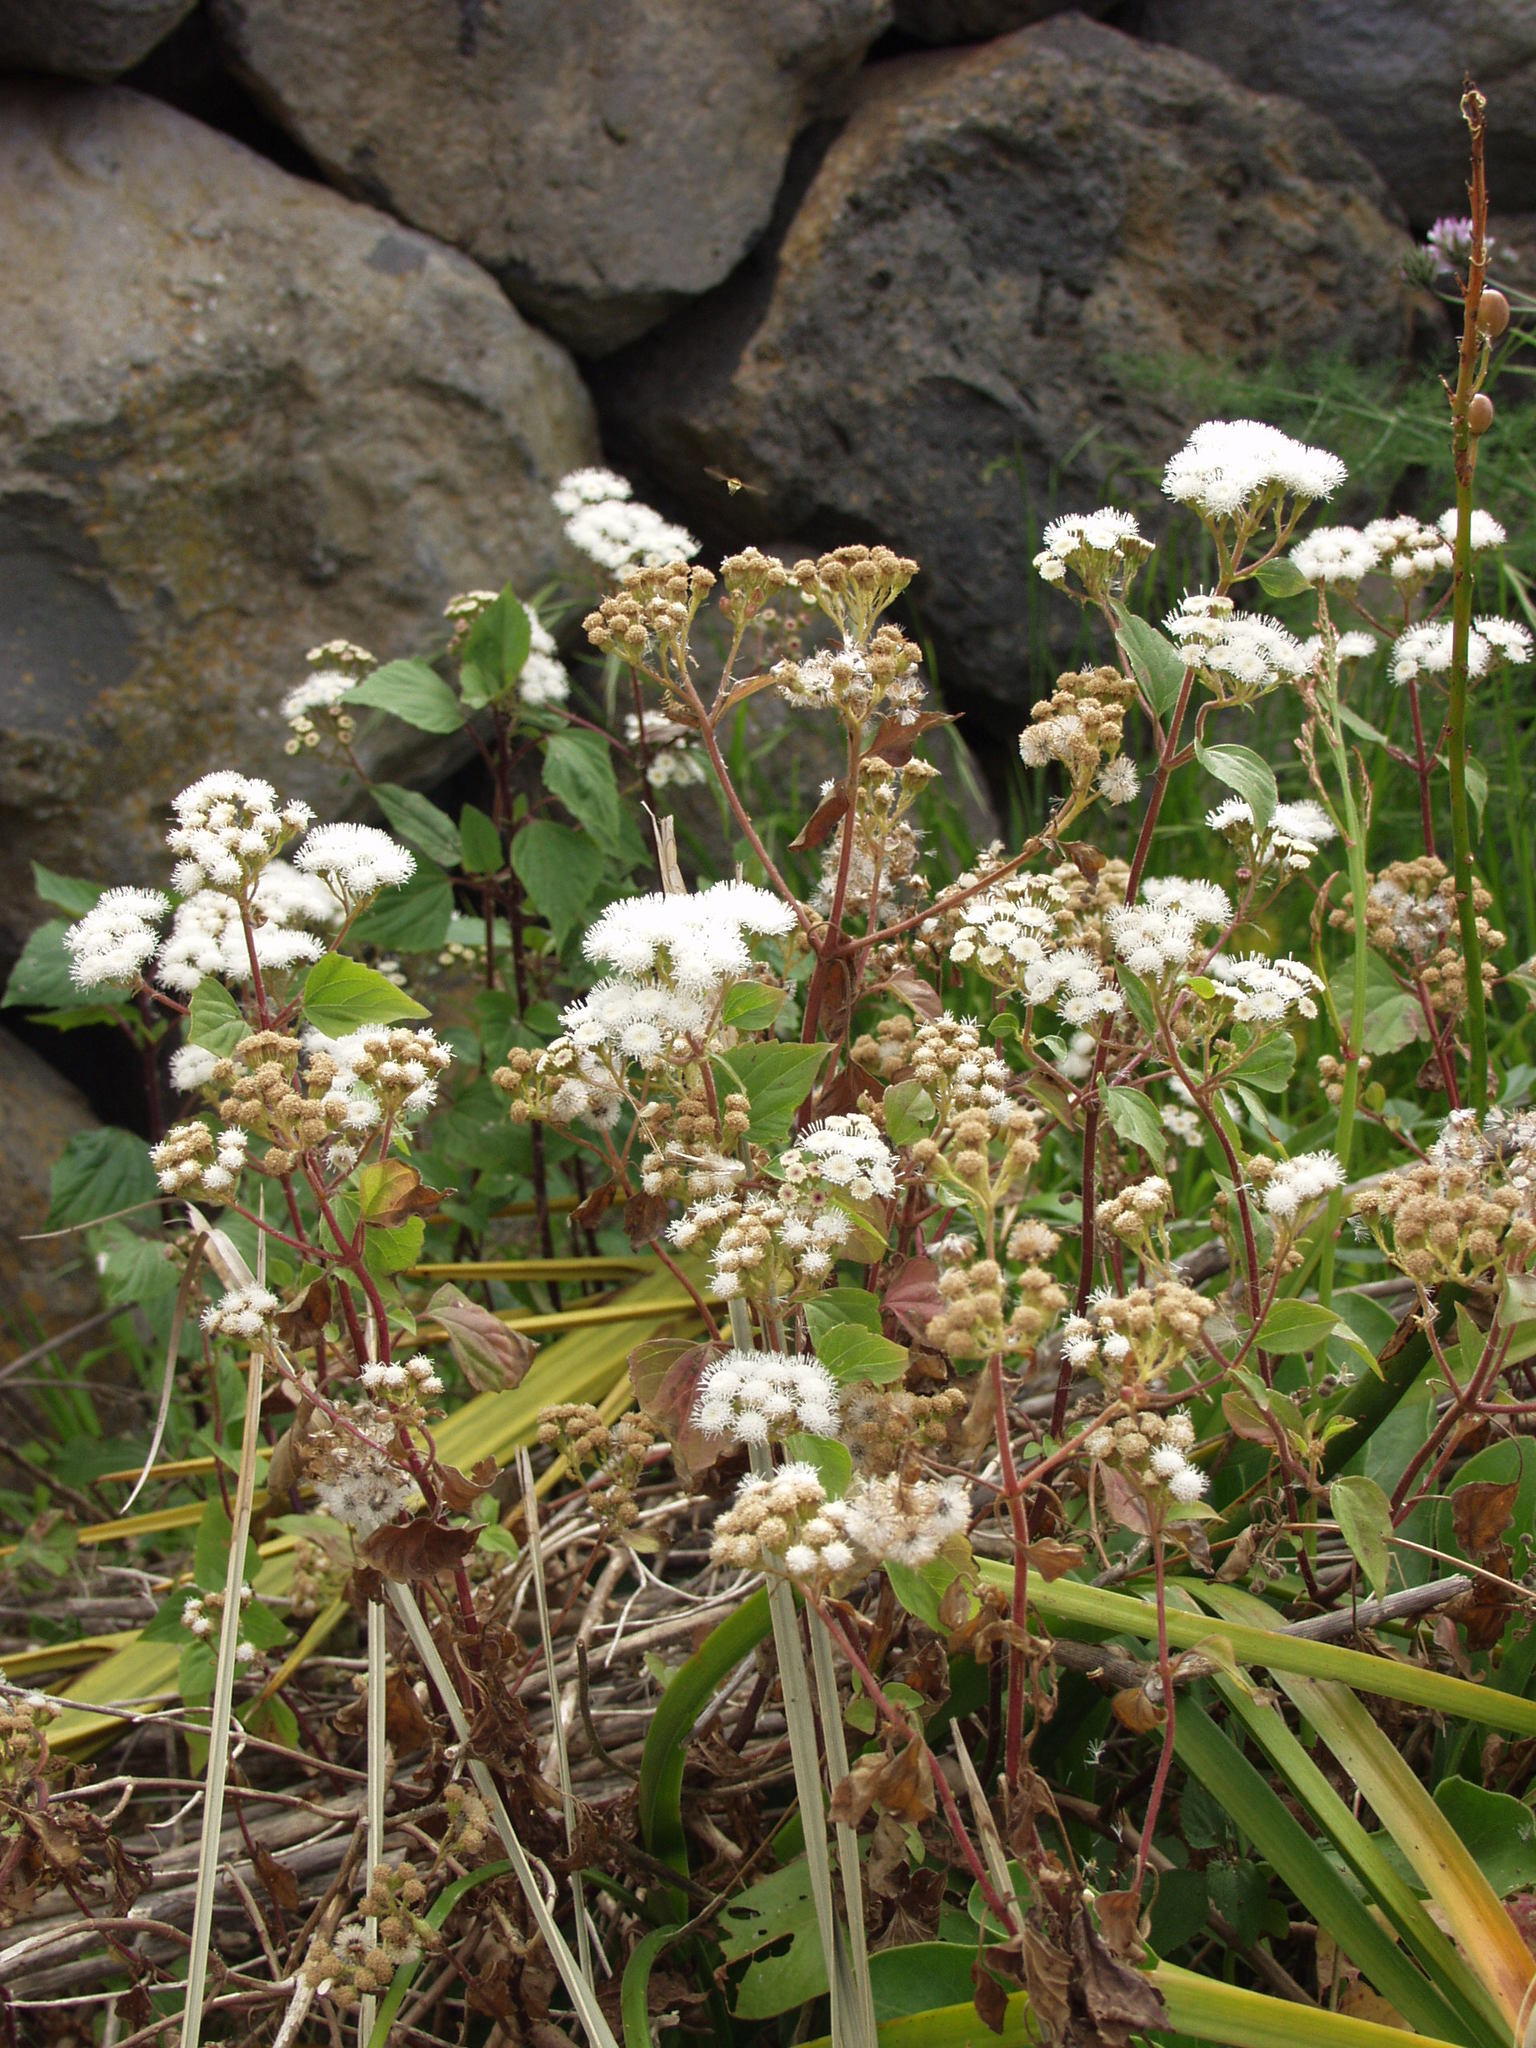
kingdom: Plantae
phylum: Tracheophyta
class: Magnoliopsida
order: Asterales
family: Asteraceae
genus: Ageratina
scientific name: Ageratina adenophora
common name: Sticky snakeroot
